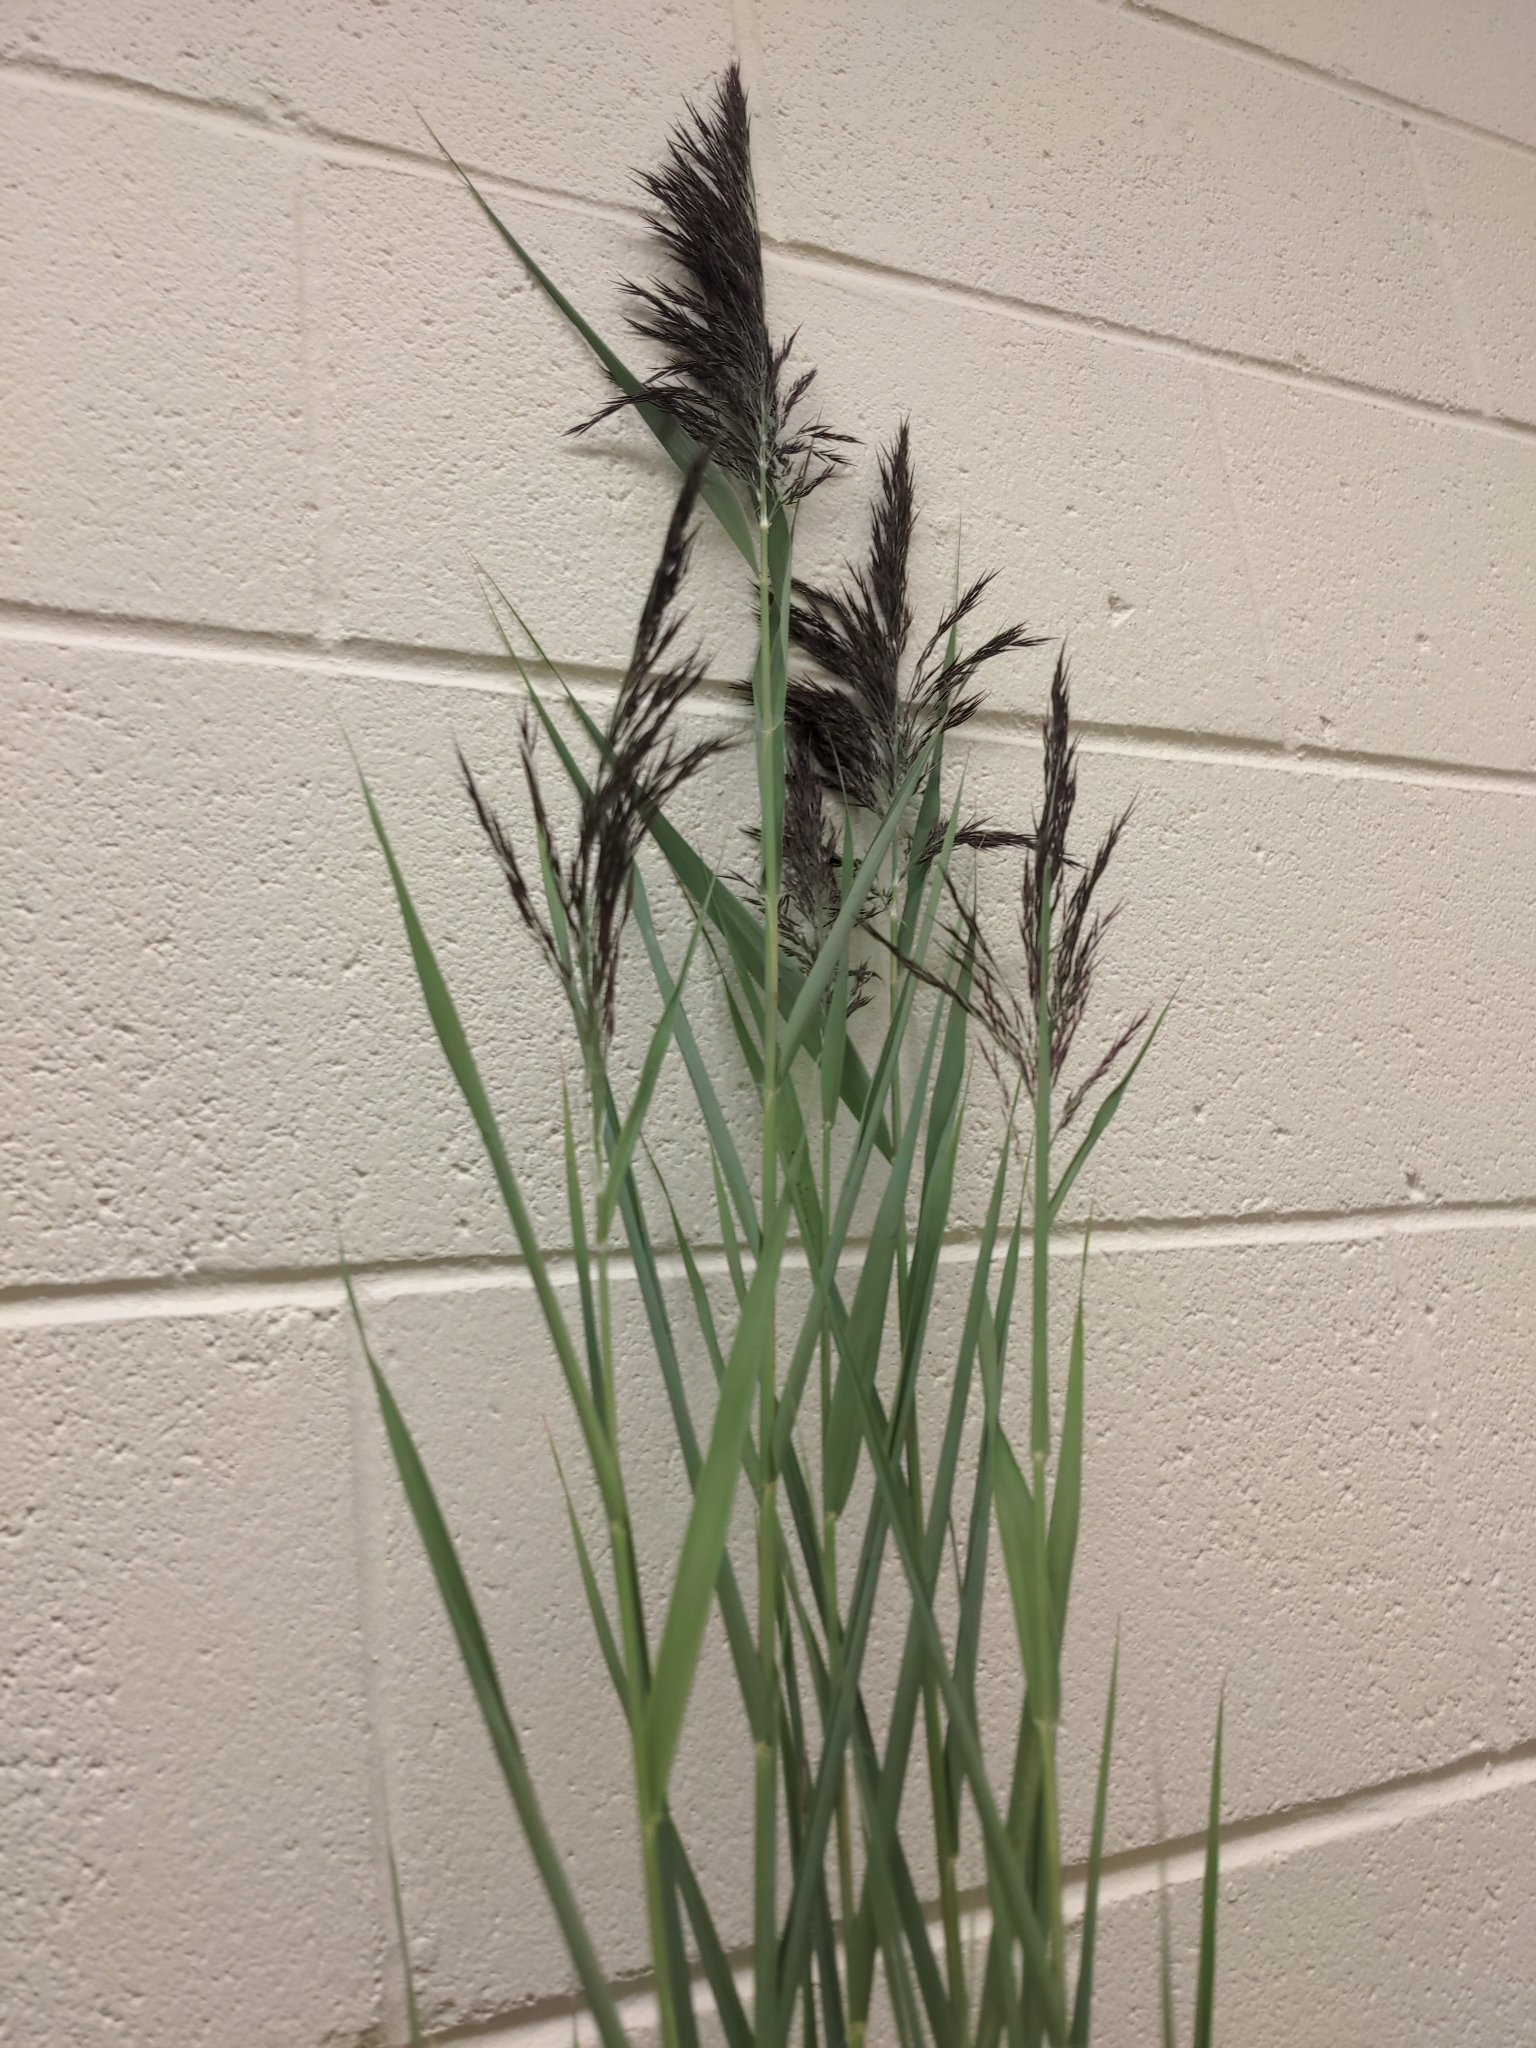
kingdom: Plantae
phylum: Tracheophyta
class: Liliopsida
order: Poales
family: Poaceae
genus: Phragmites
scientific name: Phragmites australis
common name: Common reed
